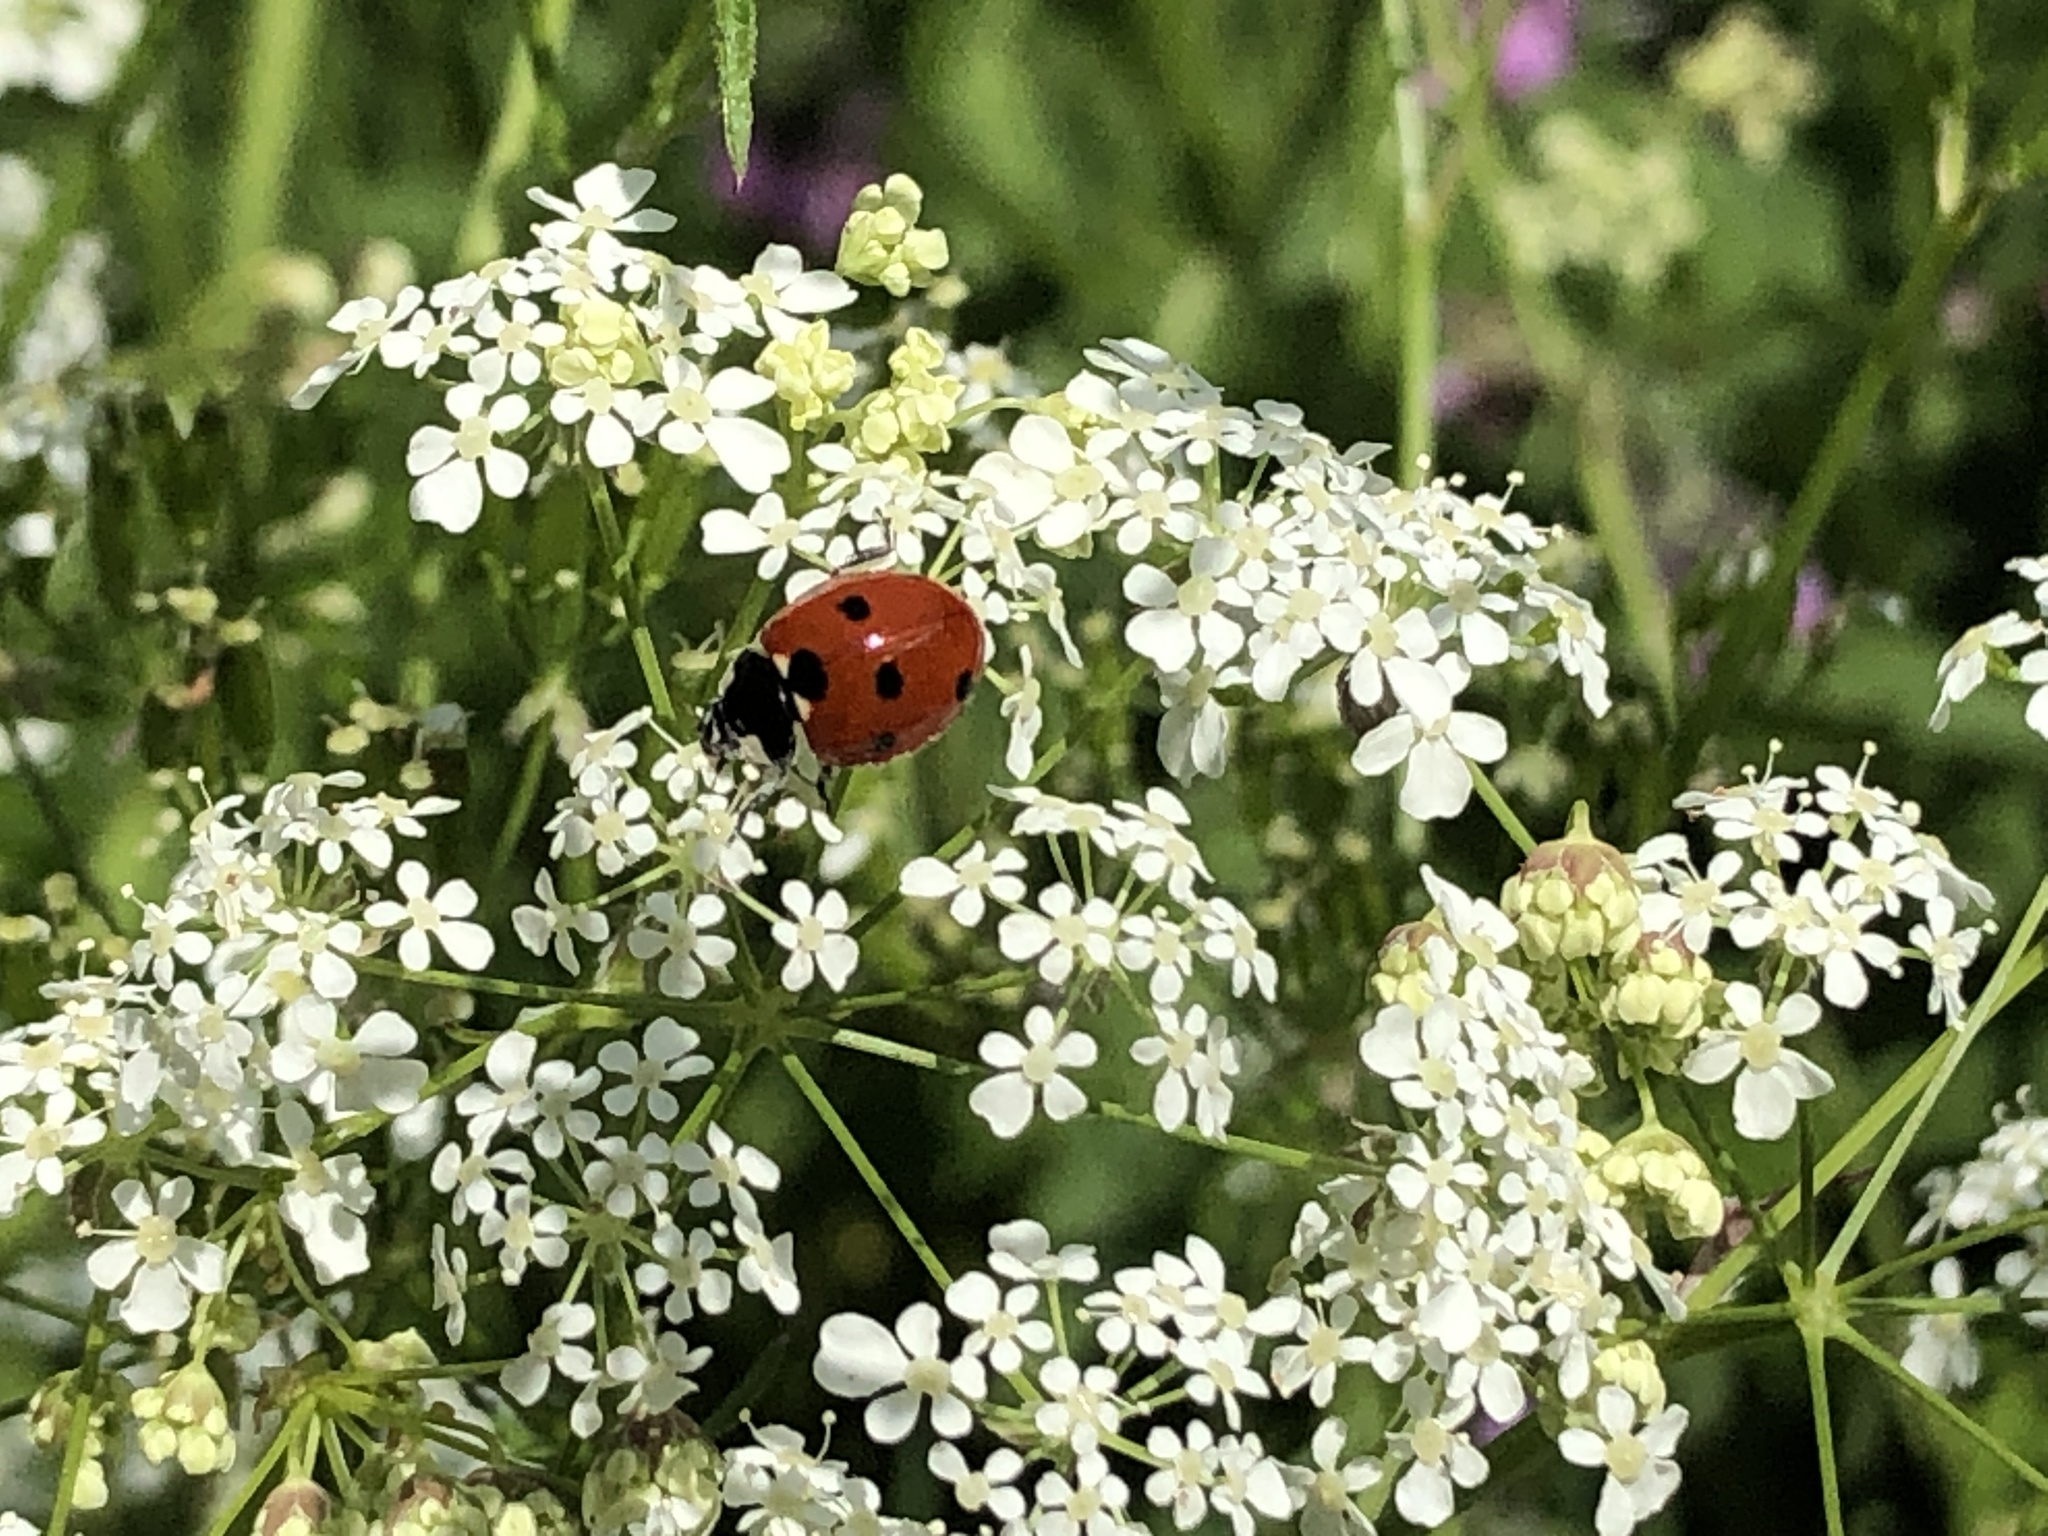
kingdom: Animalia
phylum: Arthropoda
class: Insecta
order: Coleoptera
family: Coccinellidae
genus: Coccinella
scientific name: Coccinella septempunctata
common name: Sevenspotted lady beetle
